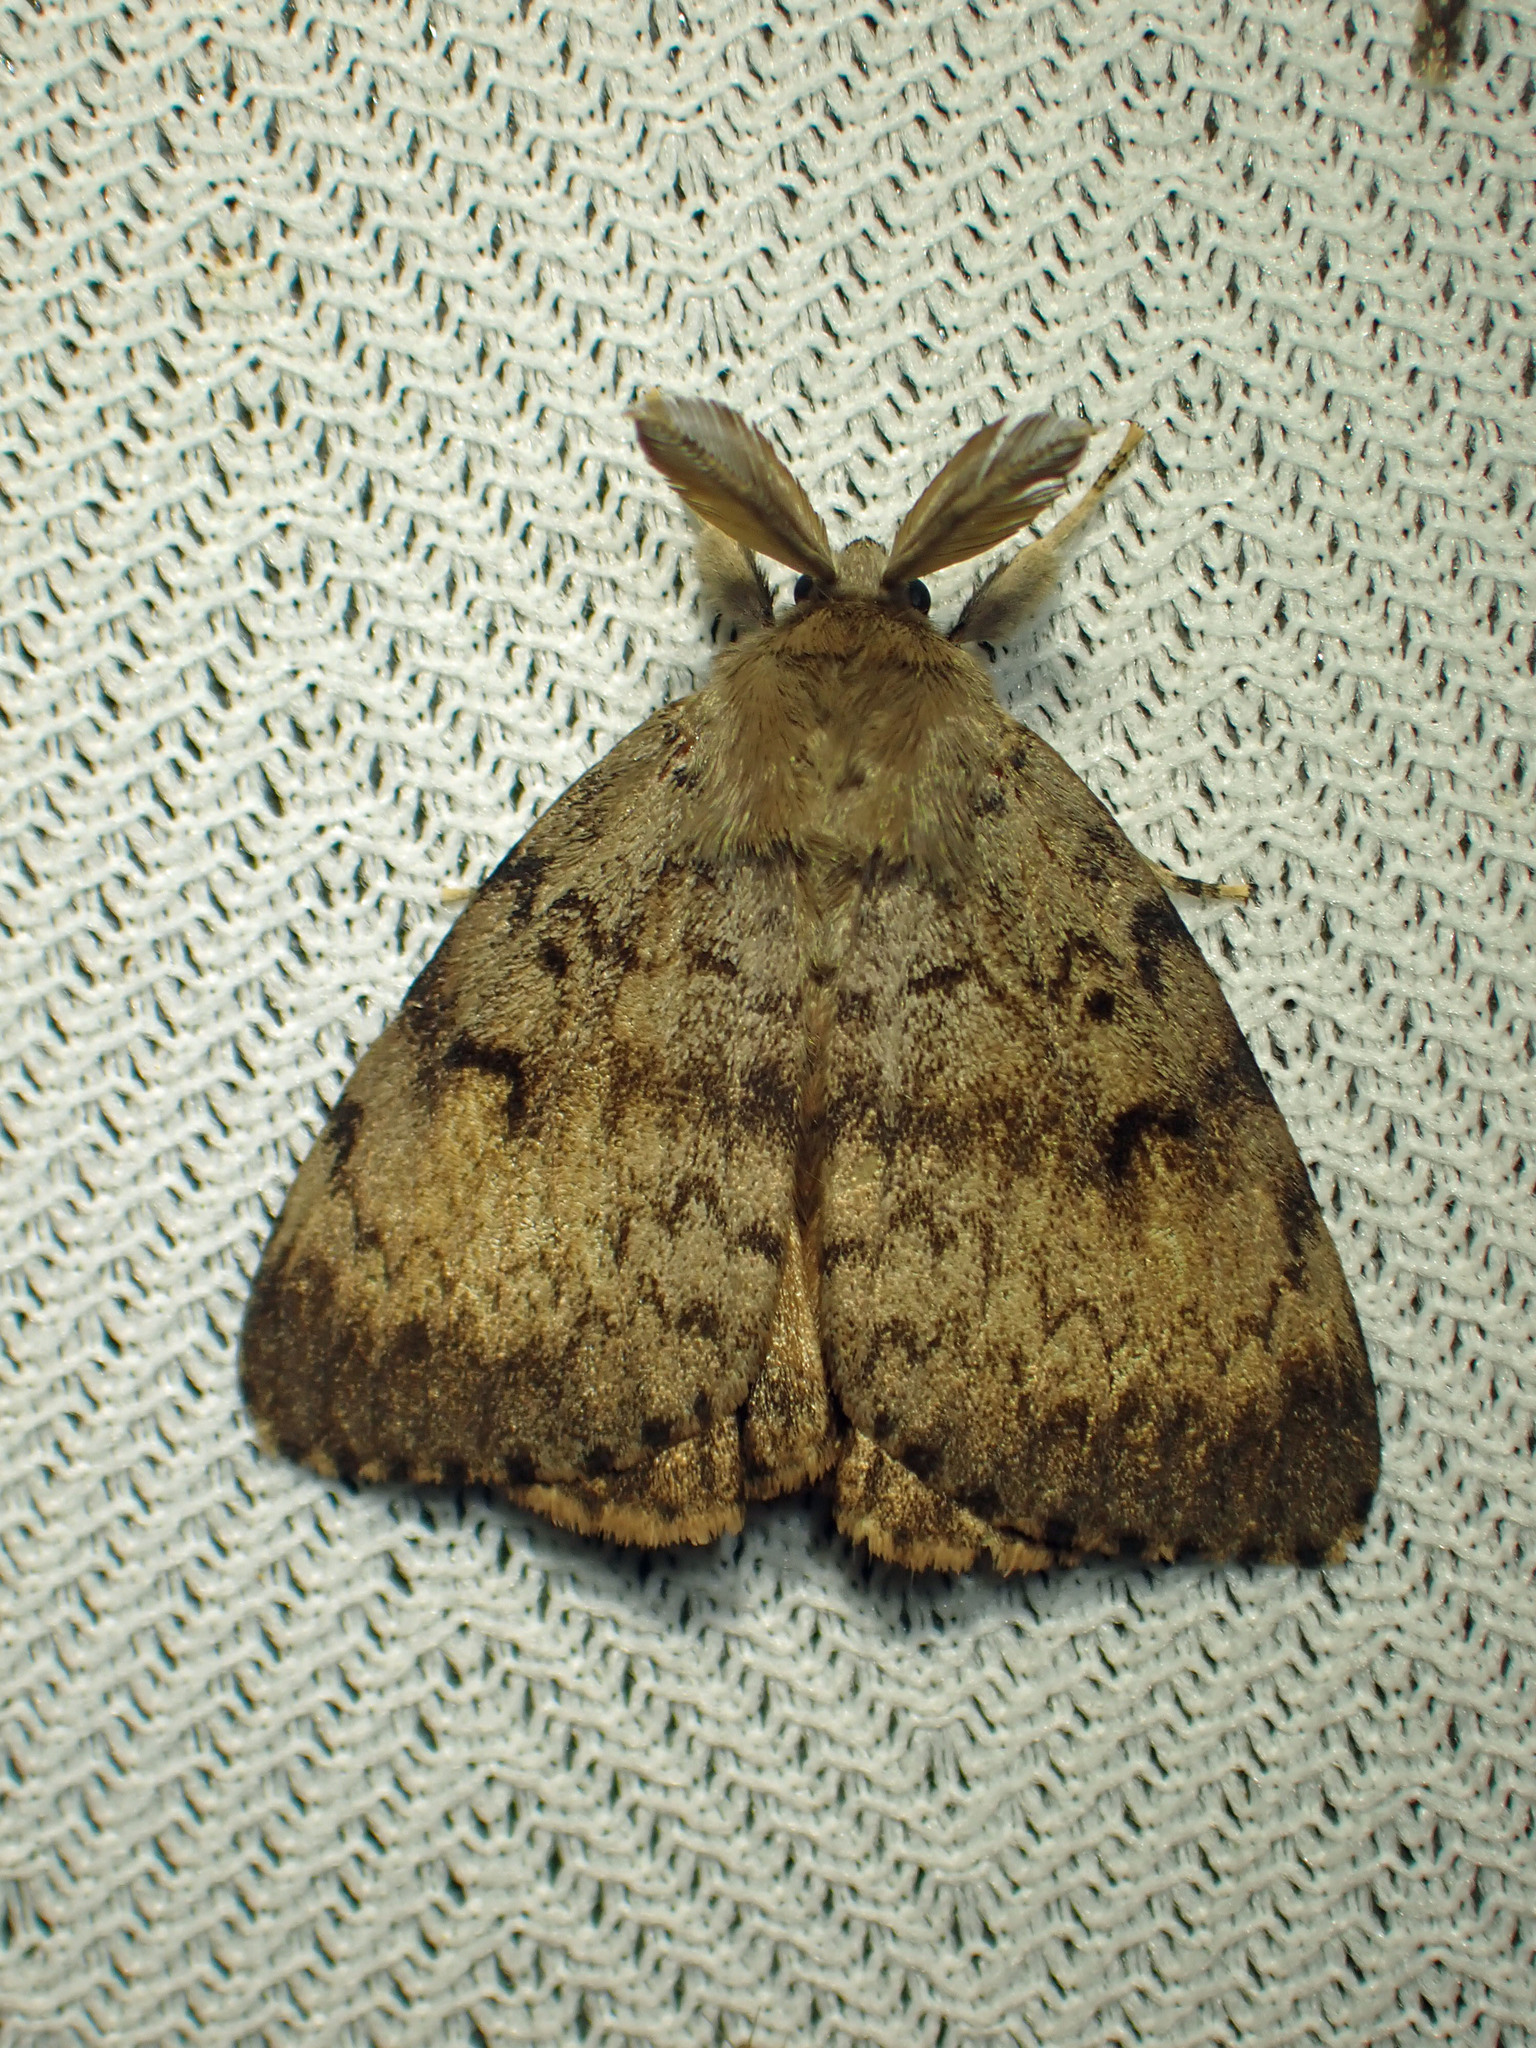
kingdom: Animalia
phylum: Arthropoda
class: Insecta
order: Lepidoptera
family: Erebidae
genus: Lymantria
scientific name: Lymantria dispar
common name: Gypsy moth
